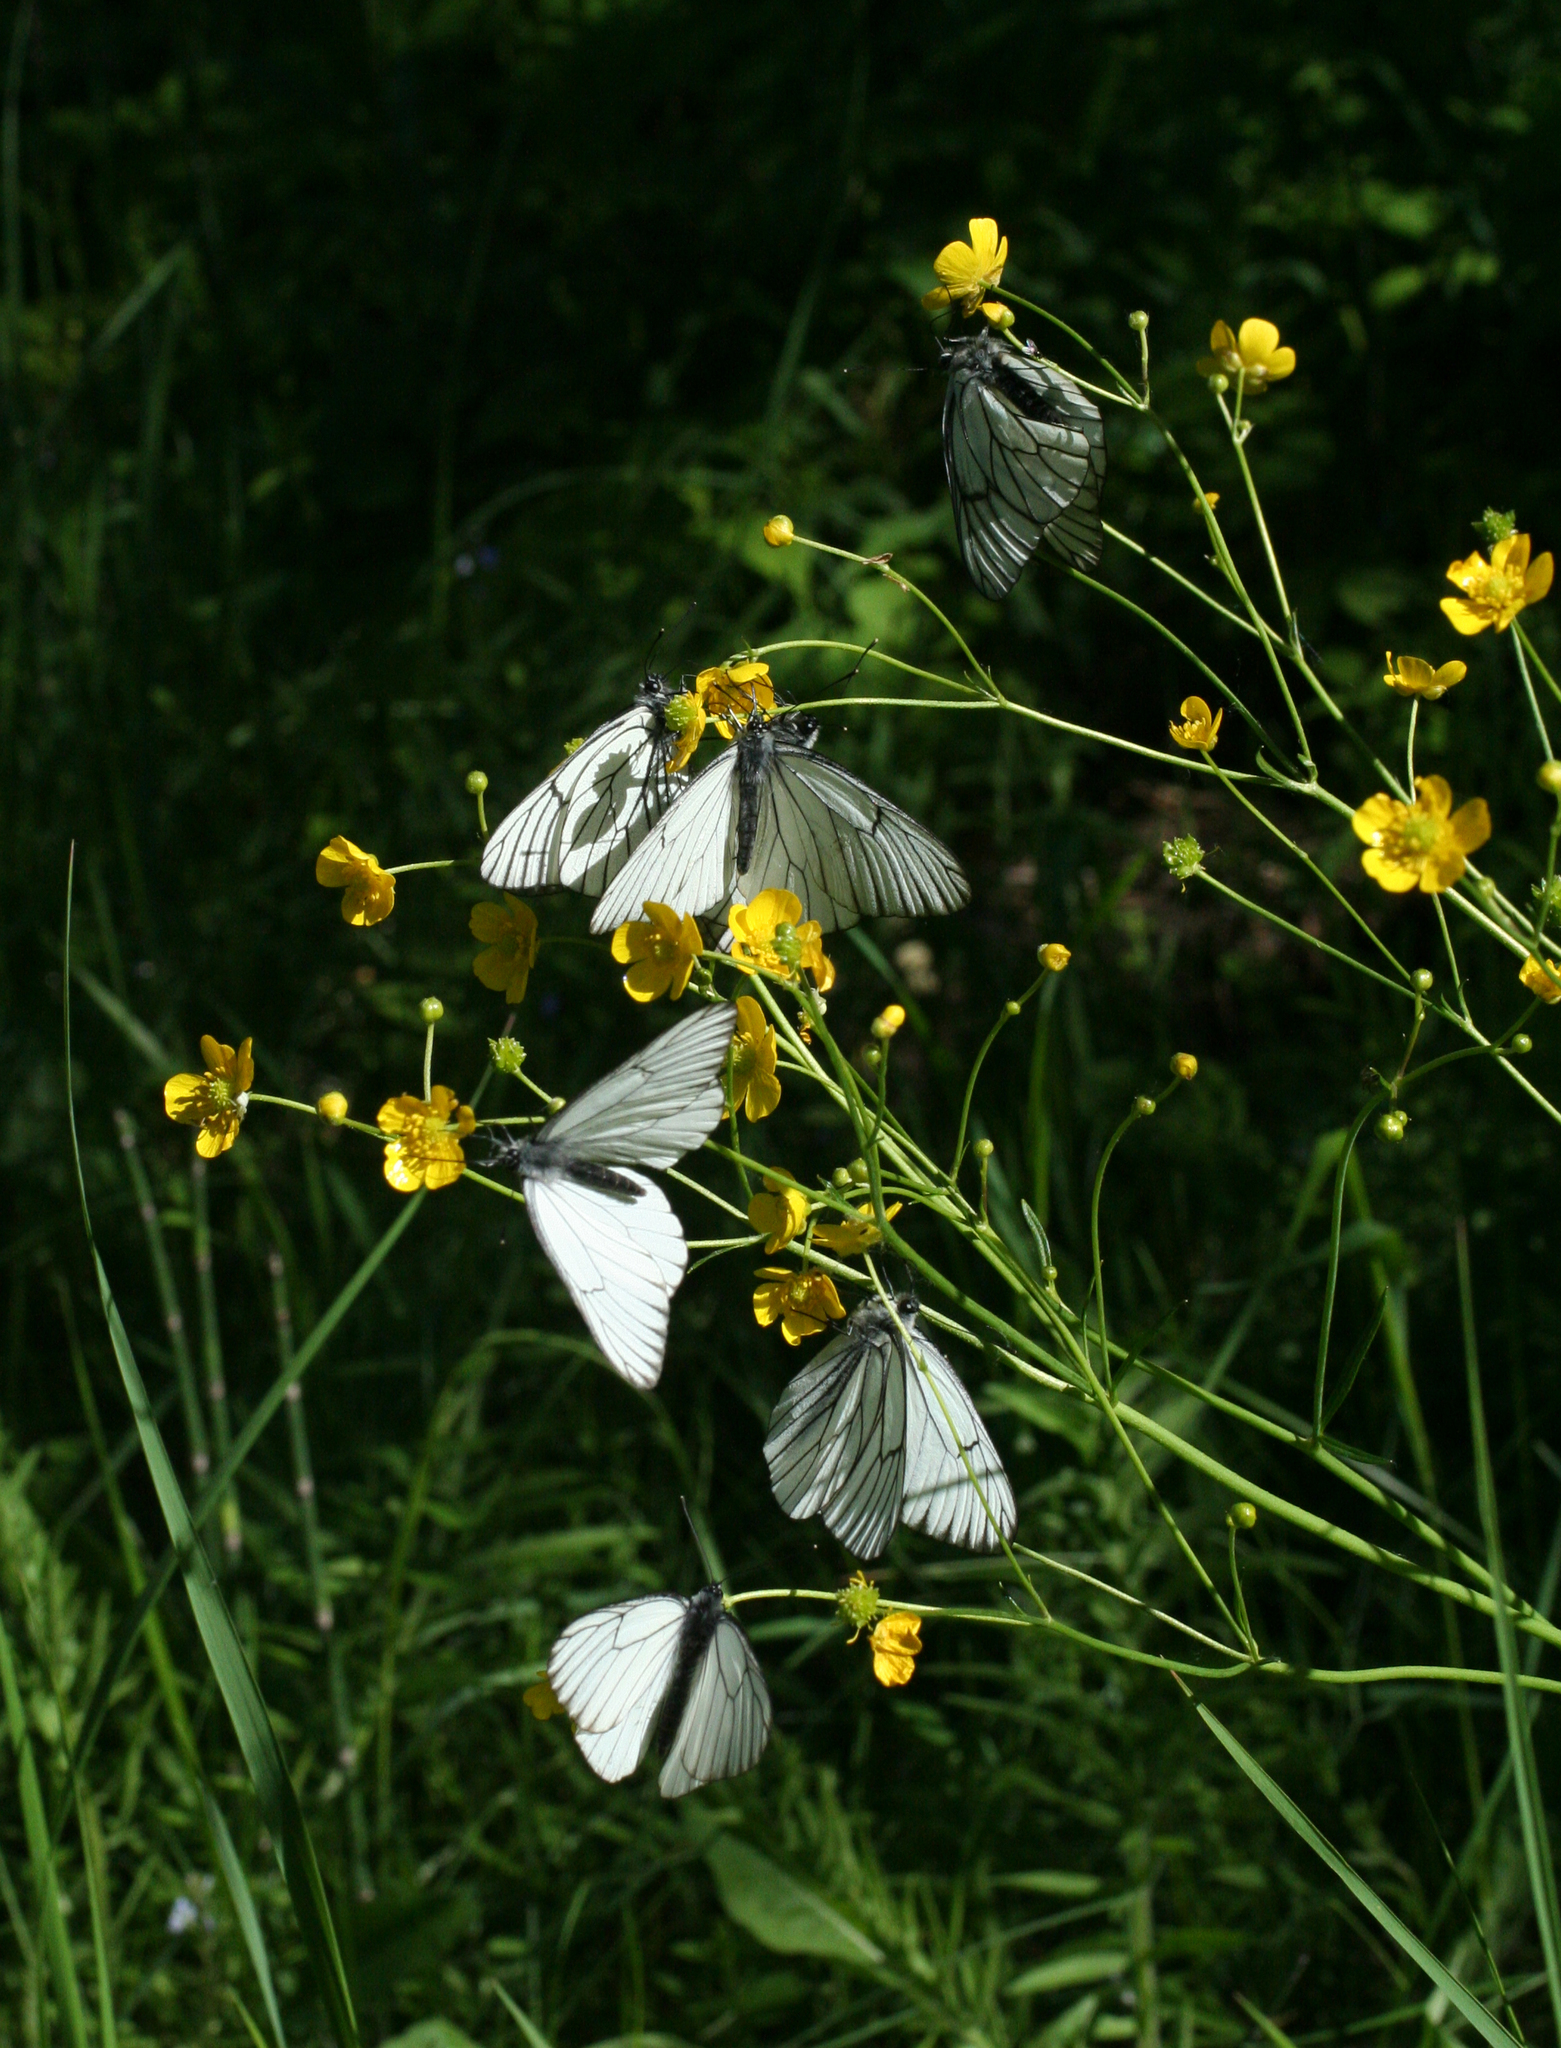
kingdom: Plantae
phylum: Tracheophyta
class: Magnoliopsida
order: Ranunculales
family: Ranunculaceae
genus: Ranunculus
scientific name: Ranunculus acris
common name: Meadow buttercup
